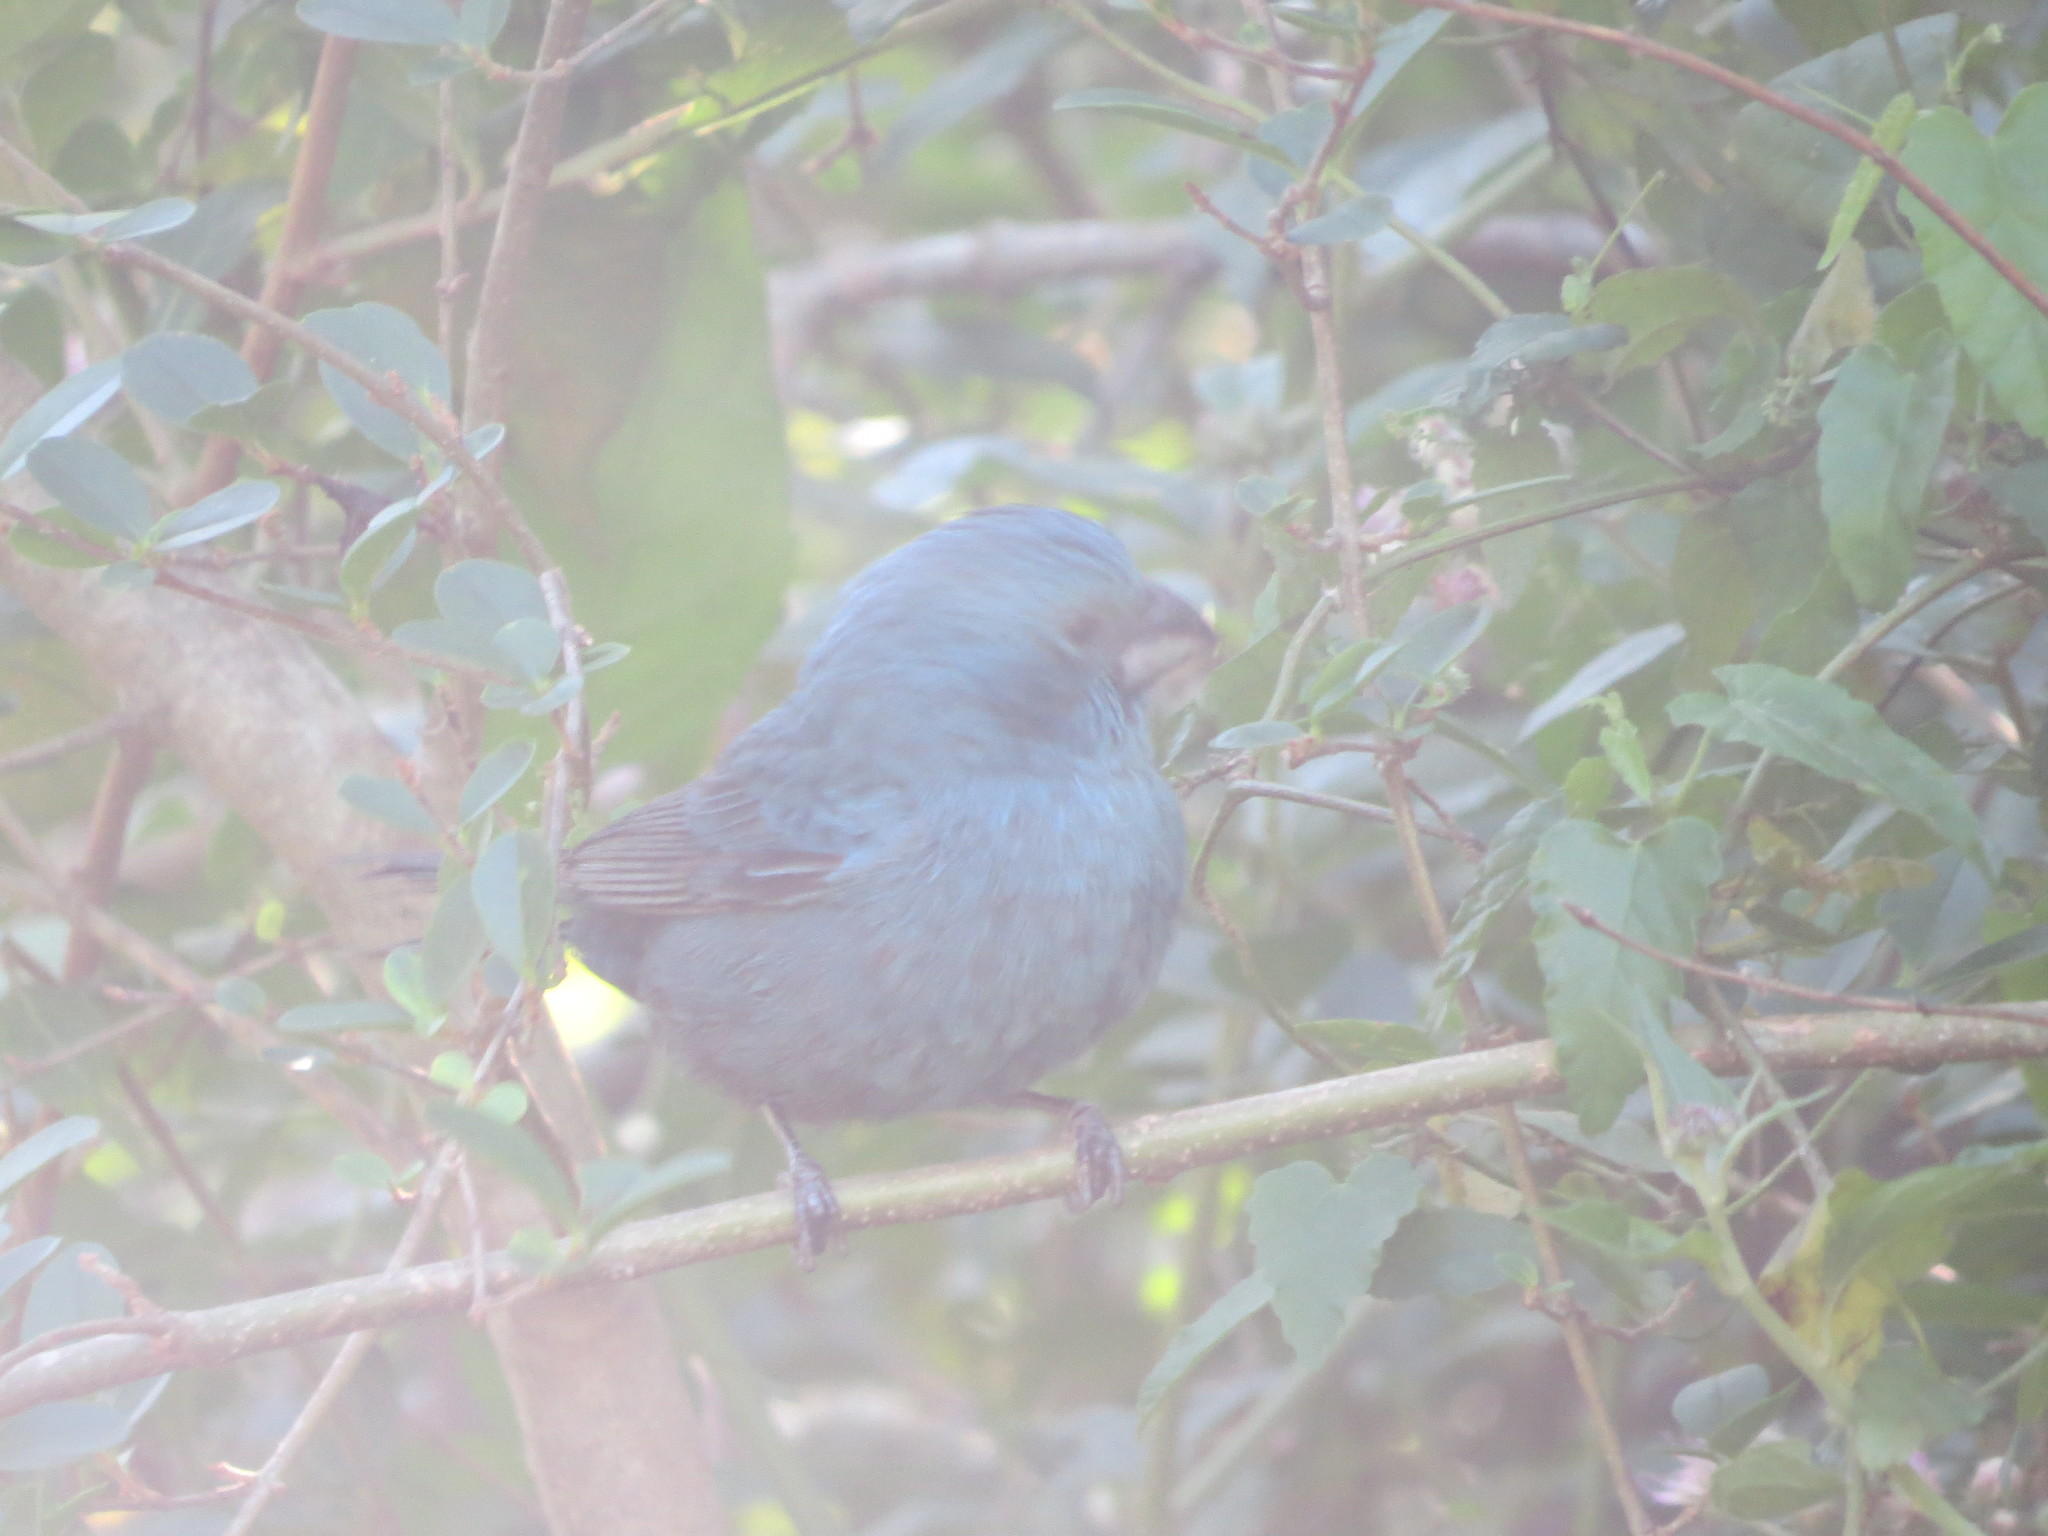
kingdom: Animalia
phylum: Chordata
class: Aves
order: Passeriformes
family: Cardinalidae
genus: Cyanoloxia
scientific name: Cyanoloxia glaucocaerulea
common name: Glaucous-blue grosbeak
